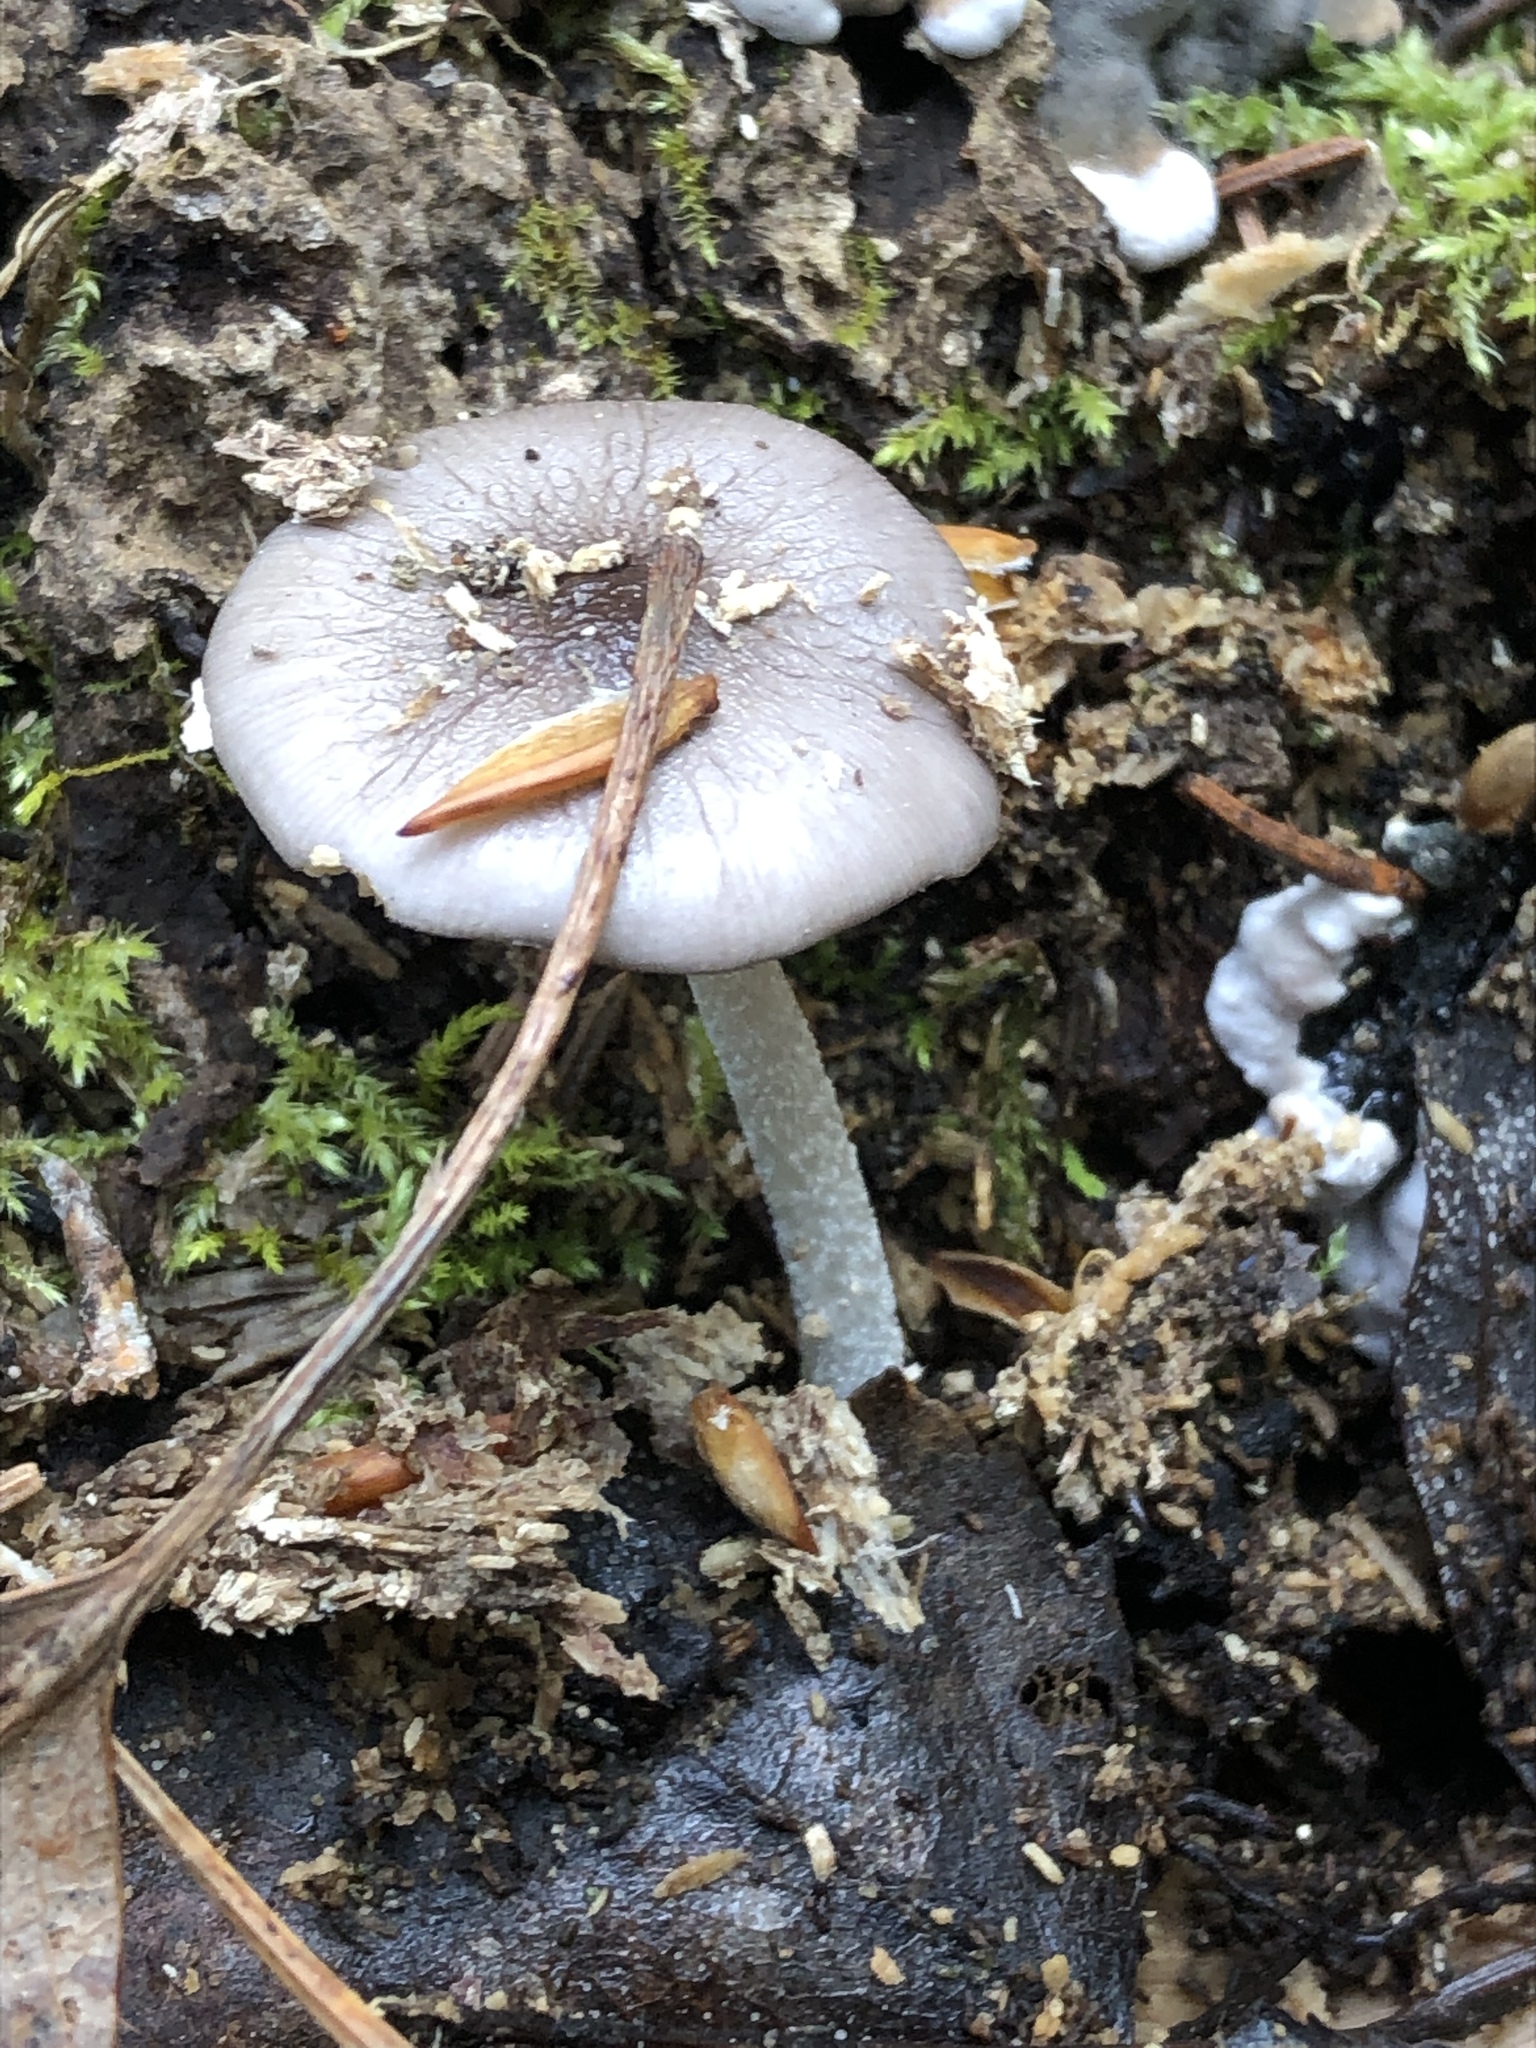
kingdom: Fungi
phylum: Basidiomycota
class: Agaricomycetes
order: Agaricales
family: Bolbitiaceae
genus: Bolbitius
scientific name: Bolbitius reticulatus
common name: Netted fieldcap
